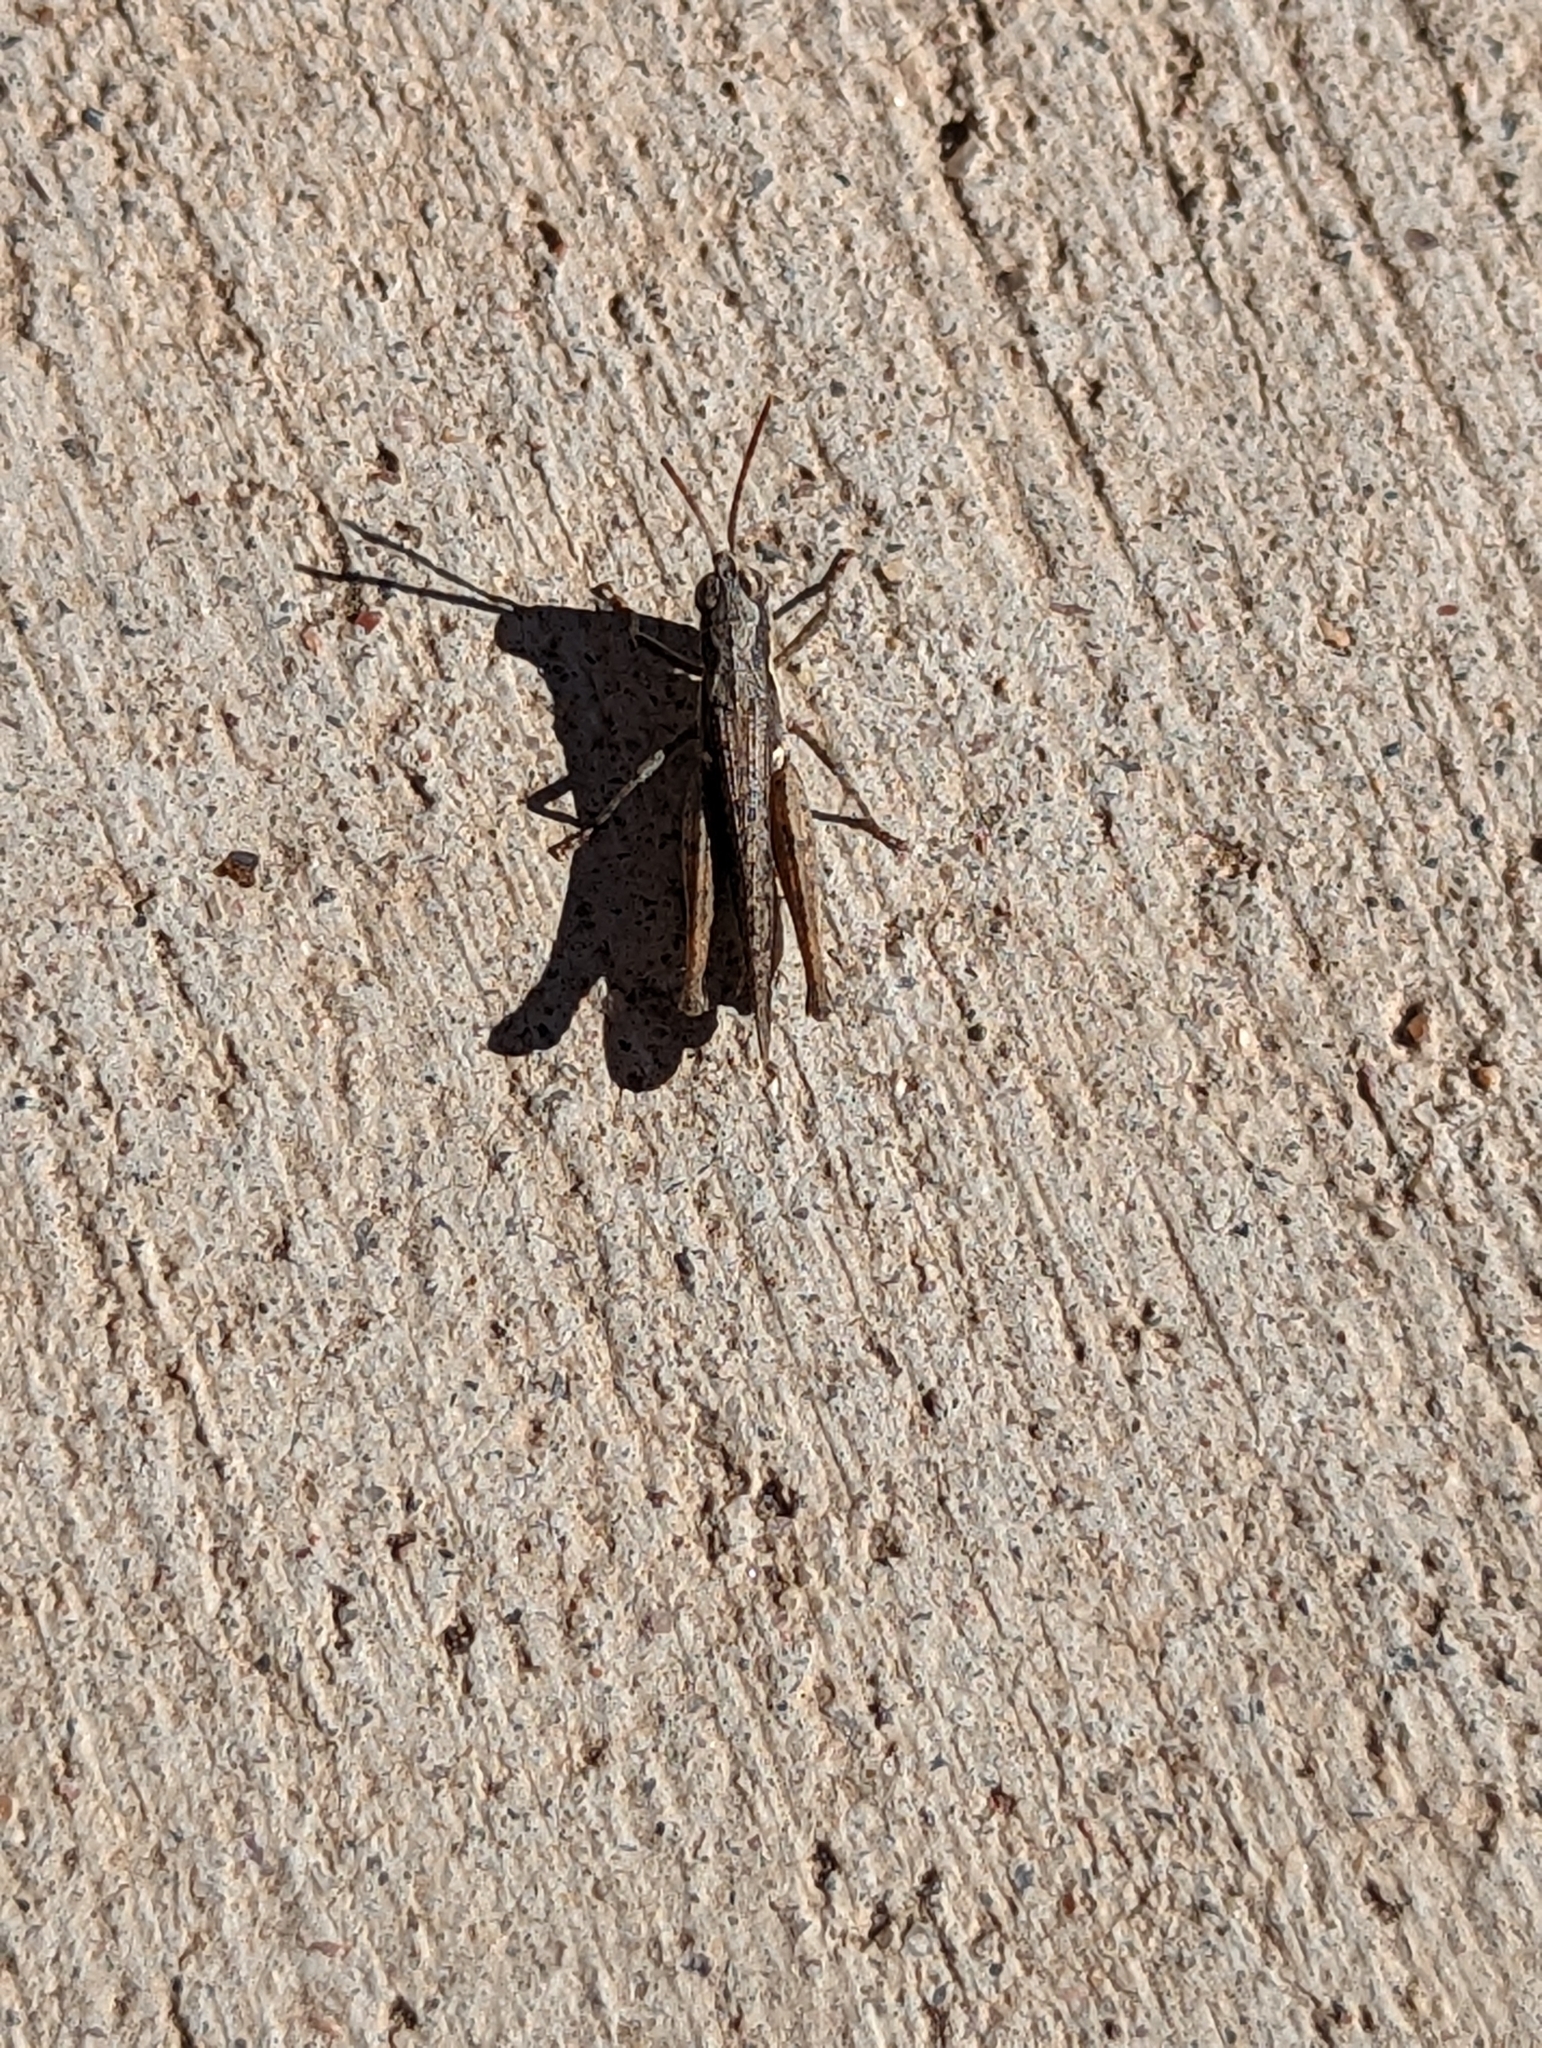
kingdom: Animalia
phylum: Arthropoda
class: Insecta
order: Orthoptera
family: Acrididae
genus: Horesidotes
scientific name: Horesidotes cinereus
